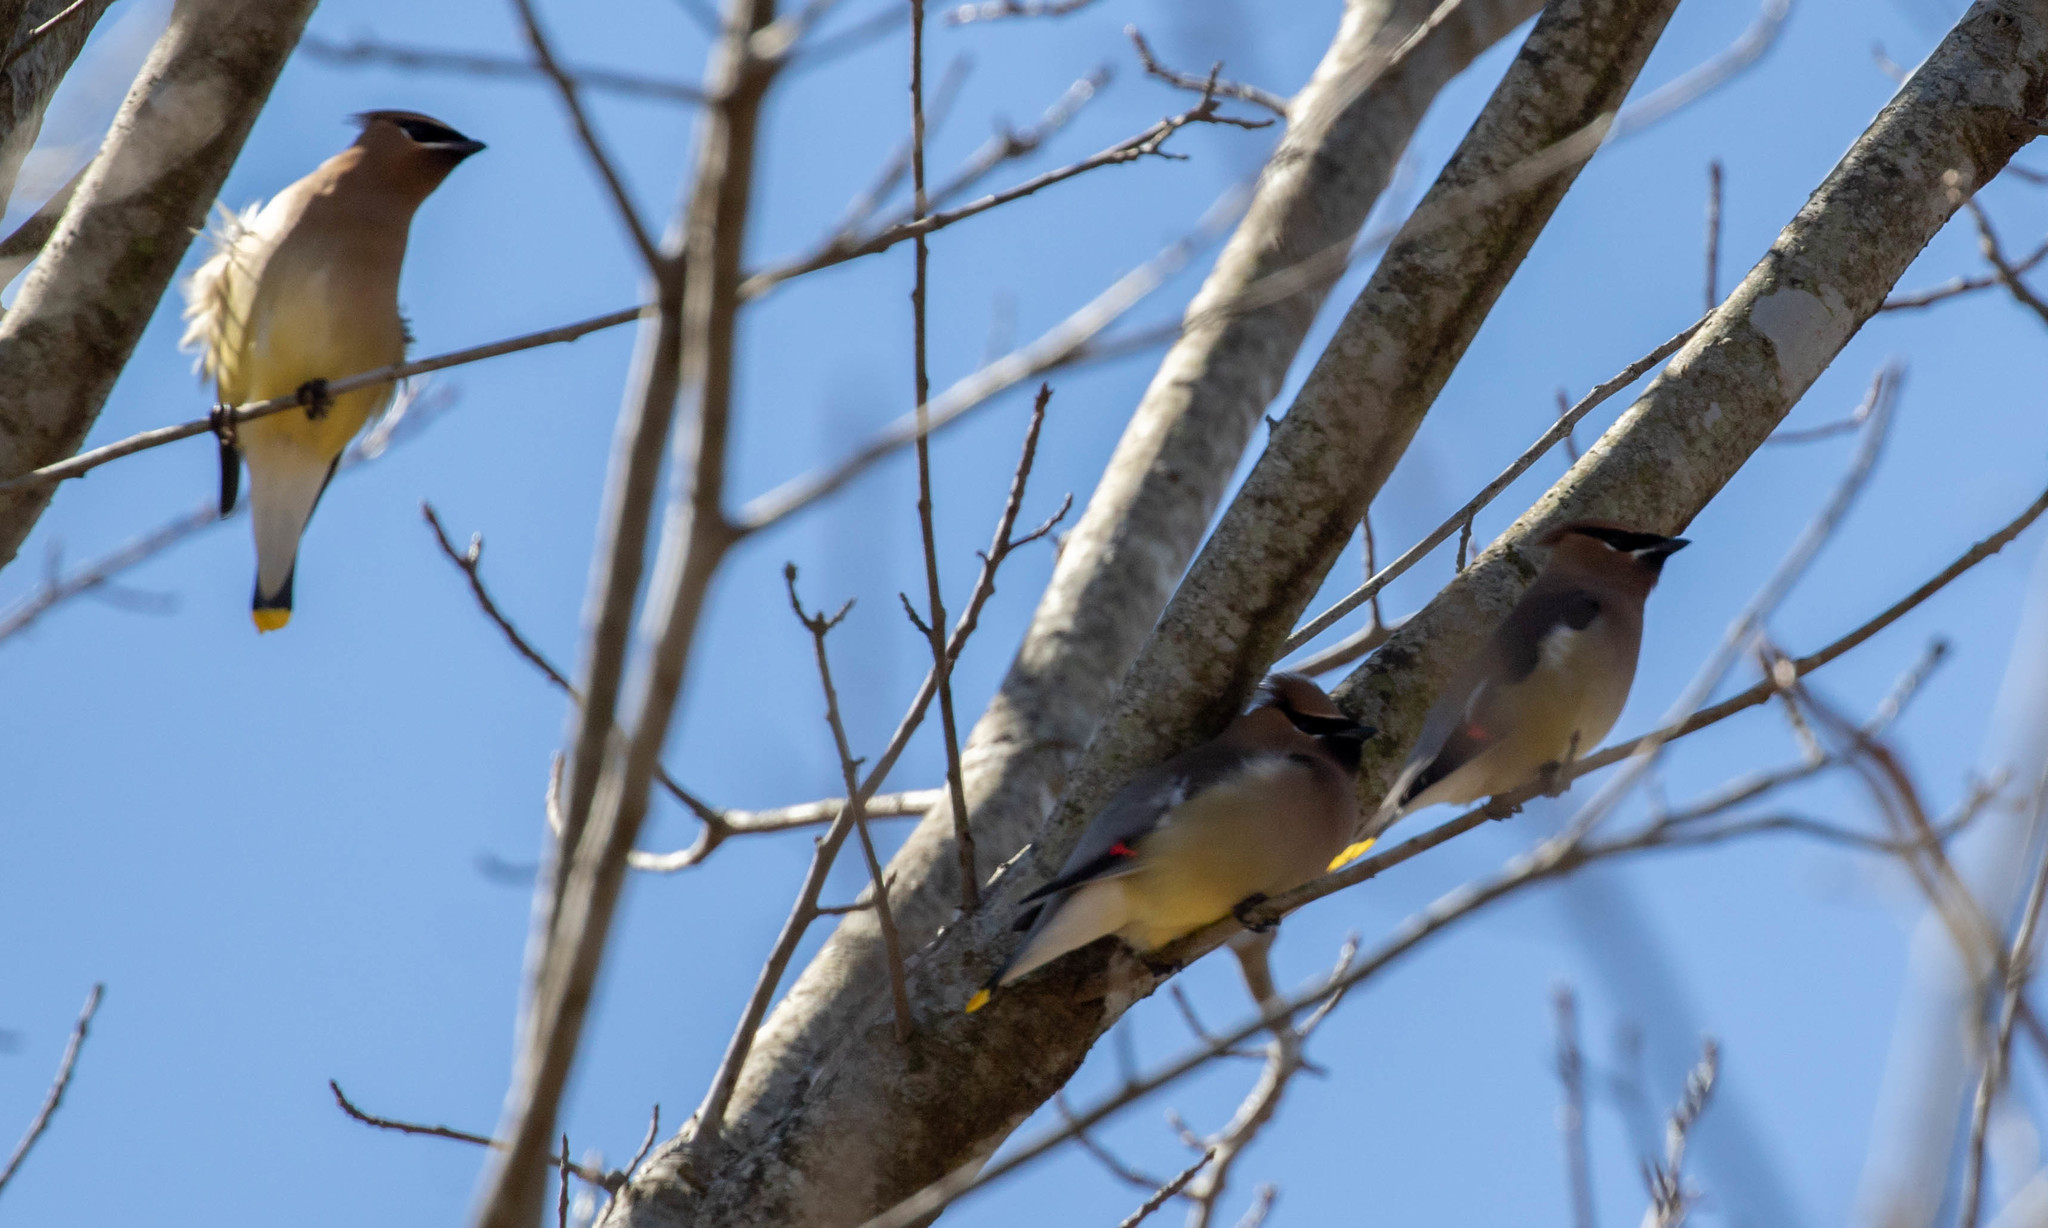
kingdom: Animalia
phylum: Chordata
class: Aves
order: Passeriformes
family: Bombycillidae
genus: Bombycilla
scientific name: Bombycilla cedrorum
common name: Cedar waxwing
